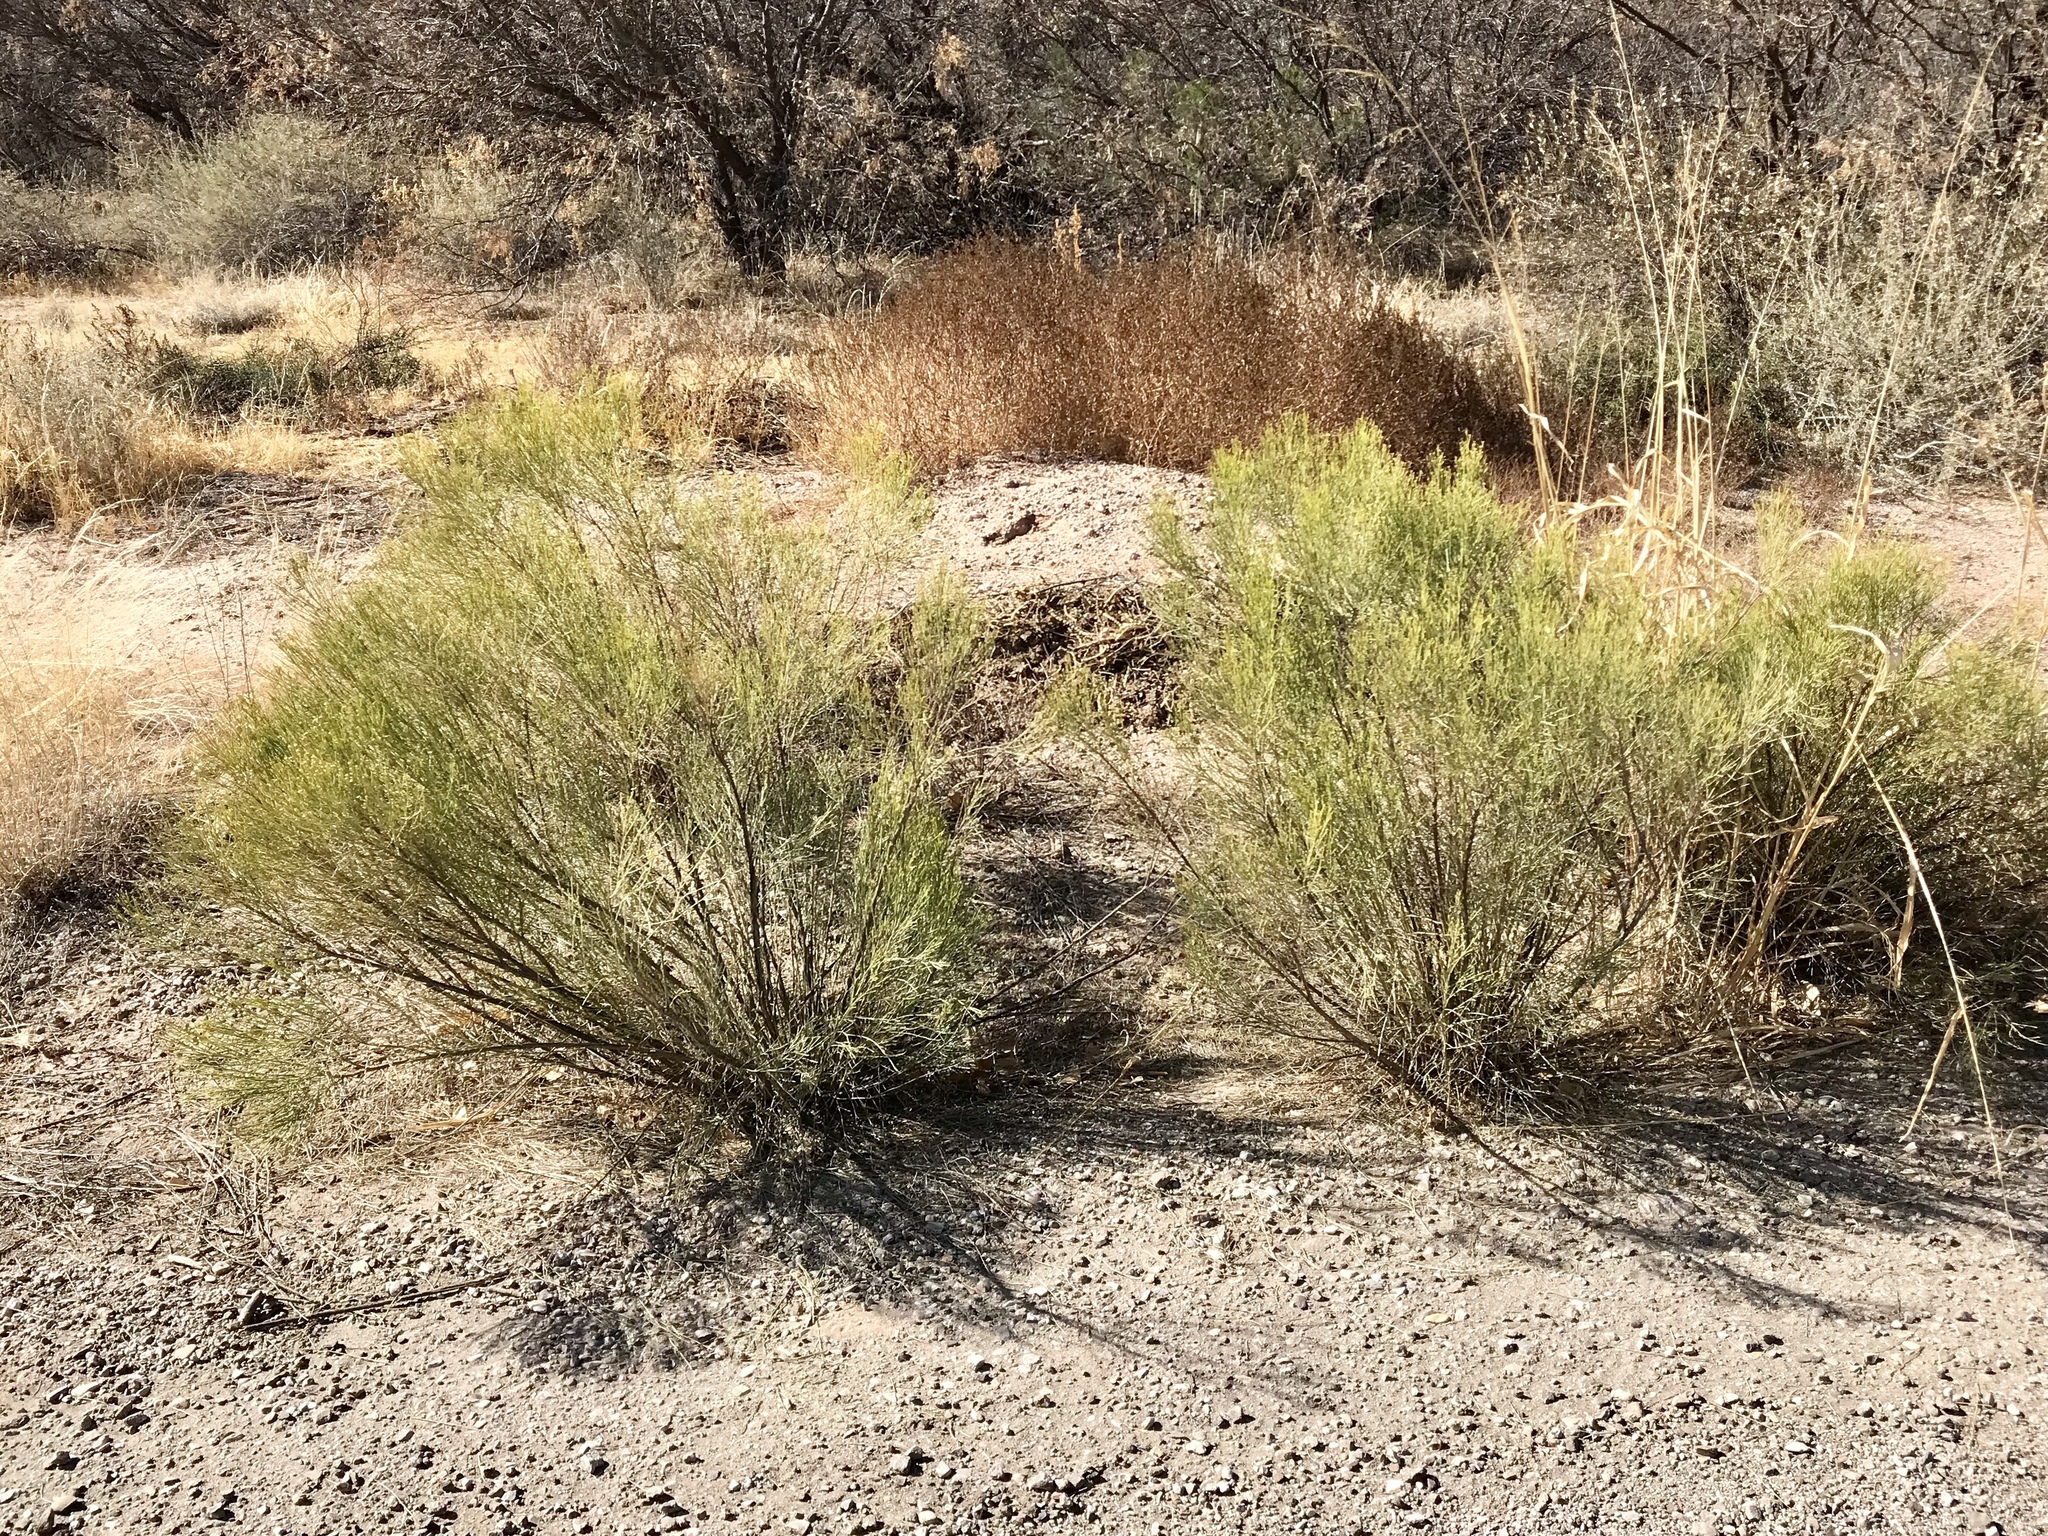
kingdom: Plantae
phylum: Tracheophyta
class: Magnoliopsida
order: Asterales
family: Asteraceae
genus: Baccharis
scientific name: Baccharis sarothroides
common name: Desert-broom
